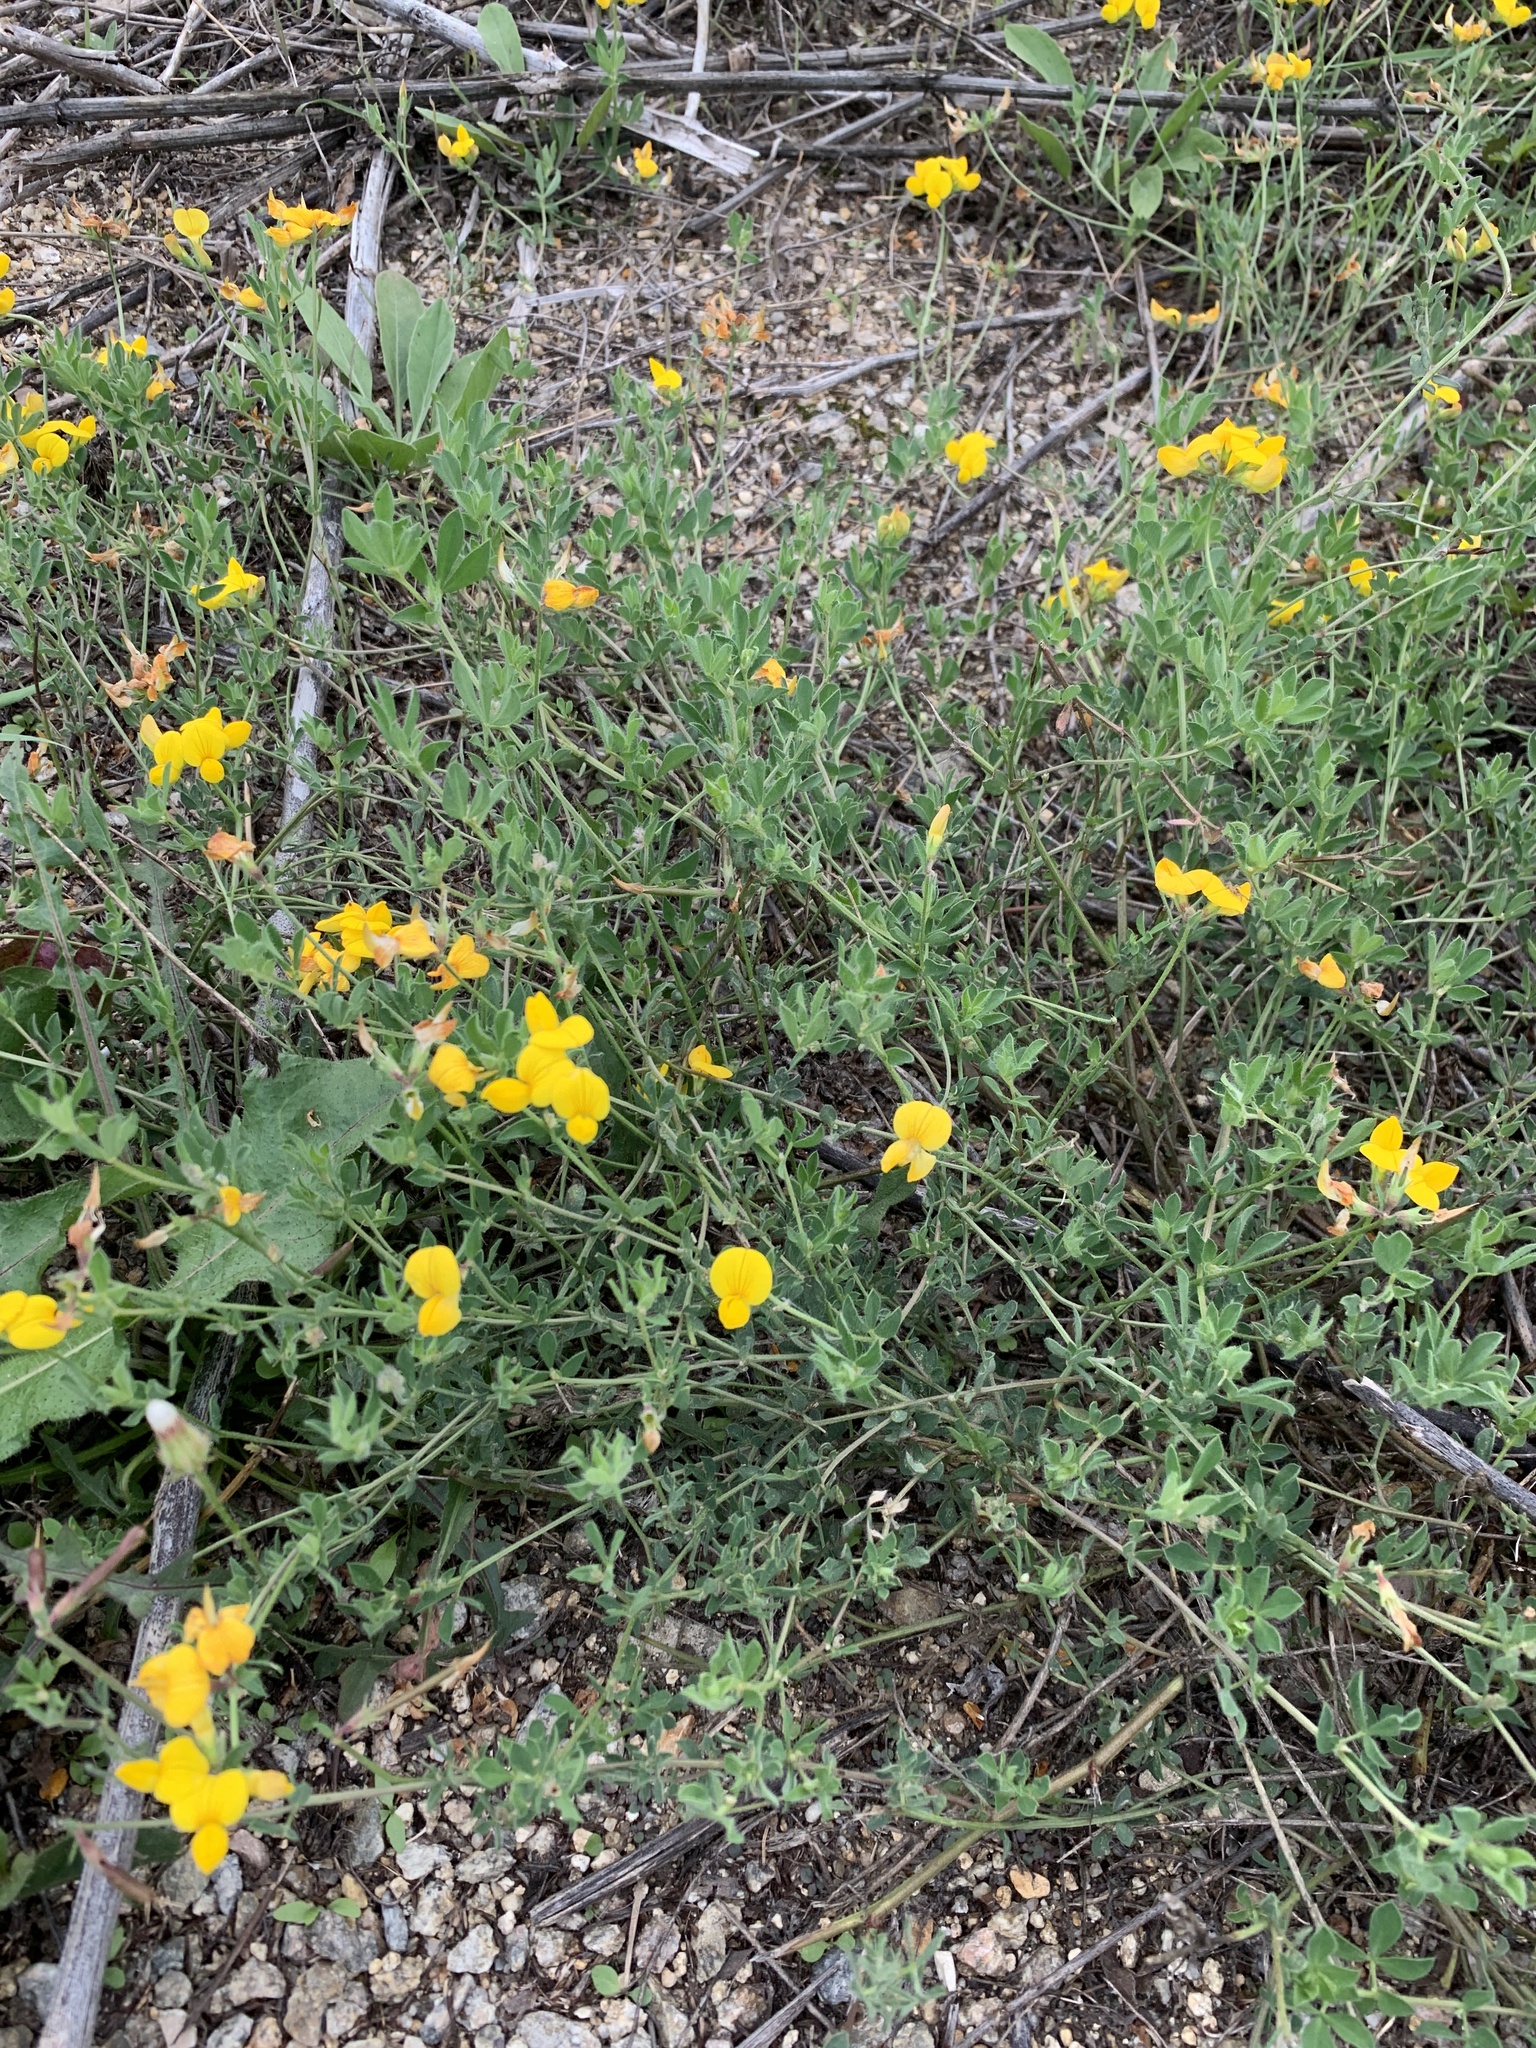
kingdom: Plantae
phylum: Tracheophyta
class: Magnoliopsida
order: Fabales
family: Fabaceae
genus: Lotus
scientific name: Lotus corniculatus
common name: Common bird's-foot-trefoil
